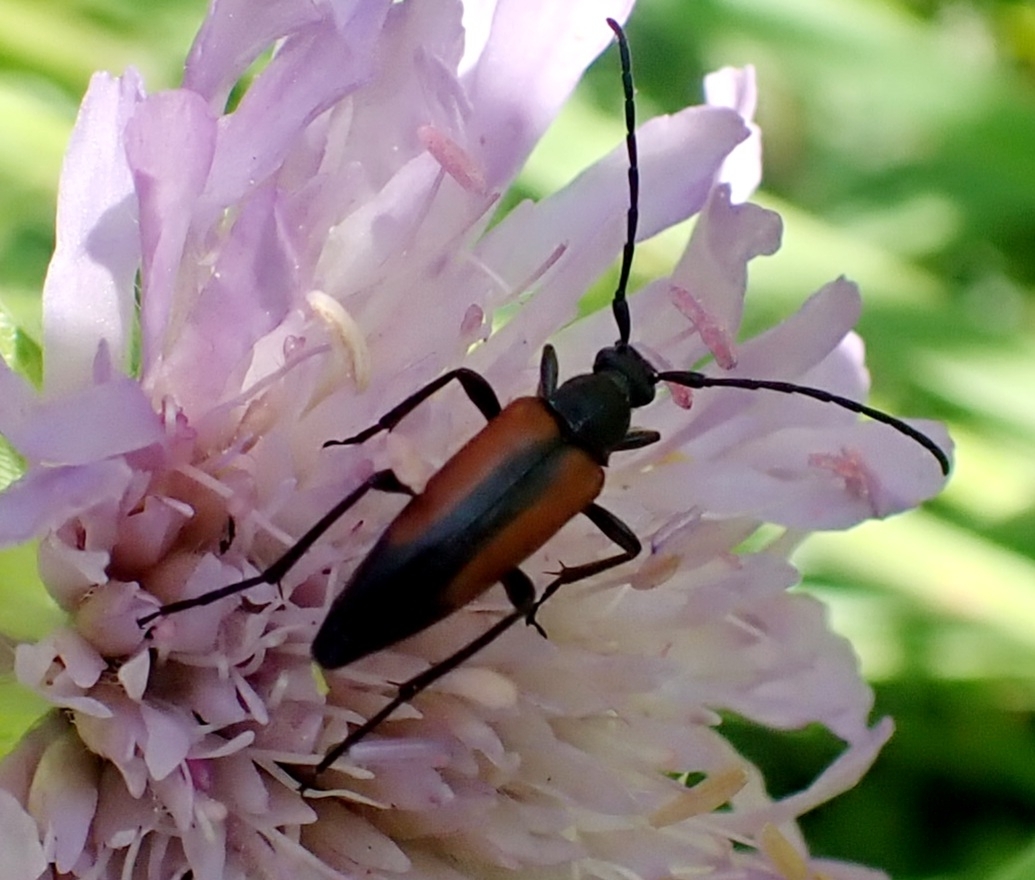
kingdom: Animalia
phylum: Arthropoda
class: Insecta
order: Coleoptera
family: Cerambycidae
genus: Stenurella
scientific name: Stenurella melanura
